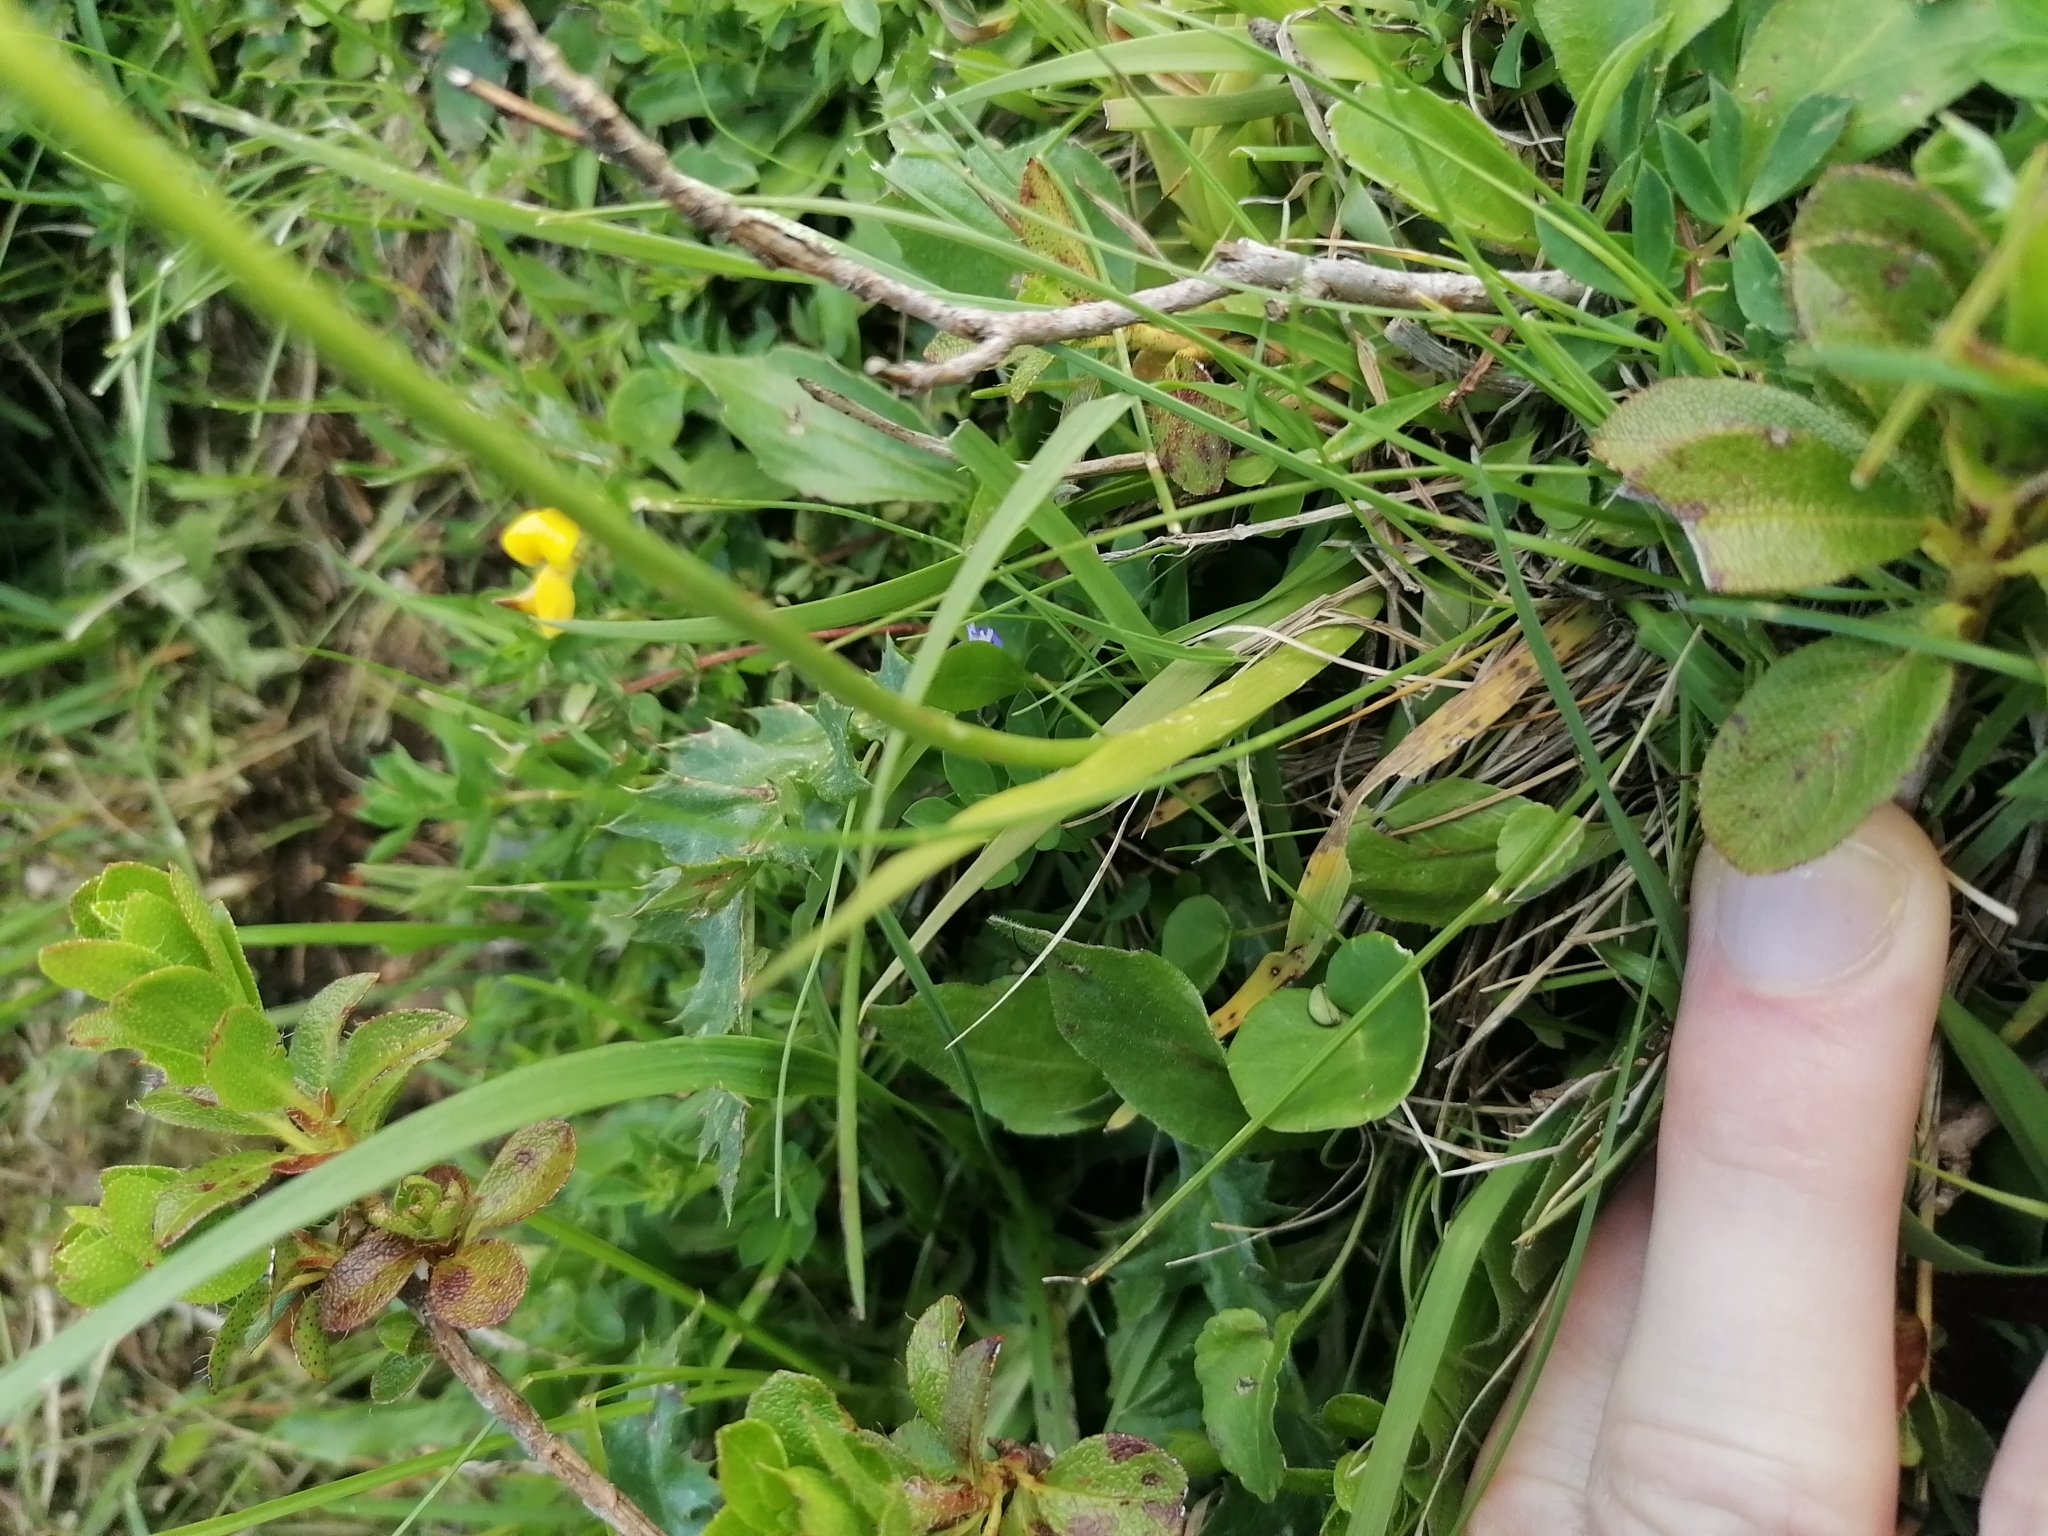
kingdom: Plantae
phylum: Tracheophyta
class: Liliopsida
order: Alismatales
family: Tofieldiaceae
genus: Tofieldia
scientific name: Tofieldia calyculata
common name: German-asphodel
